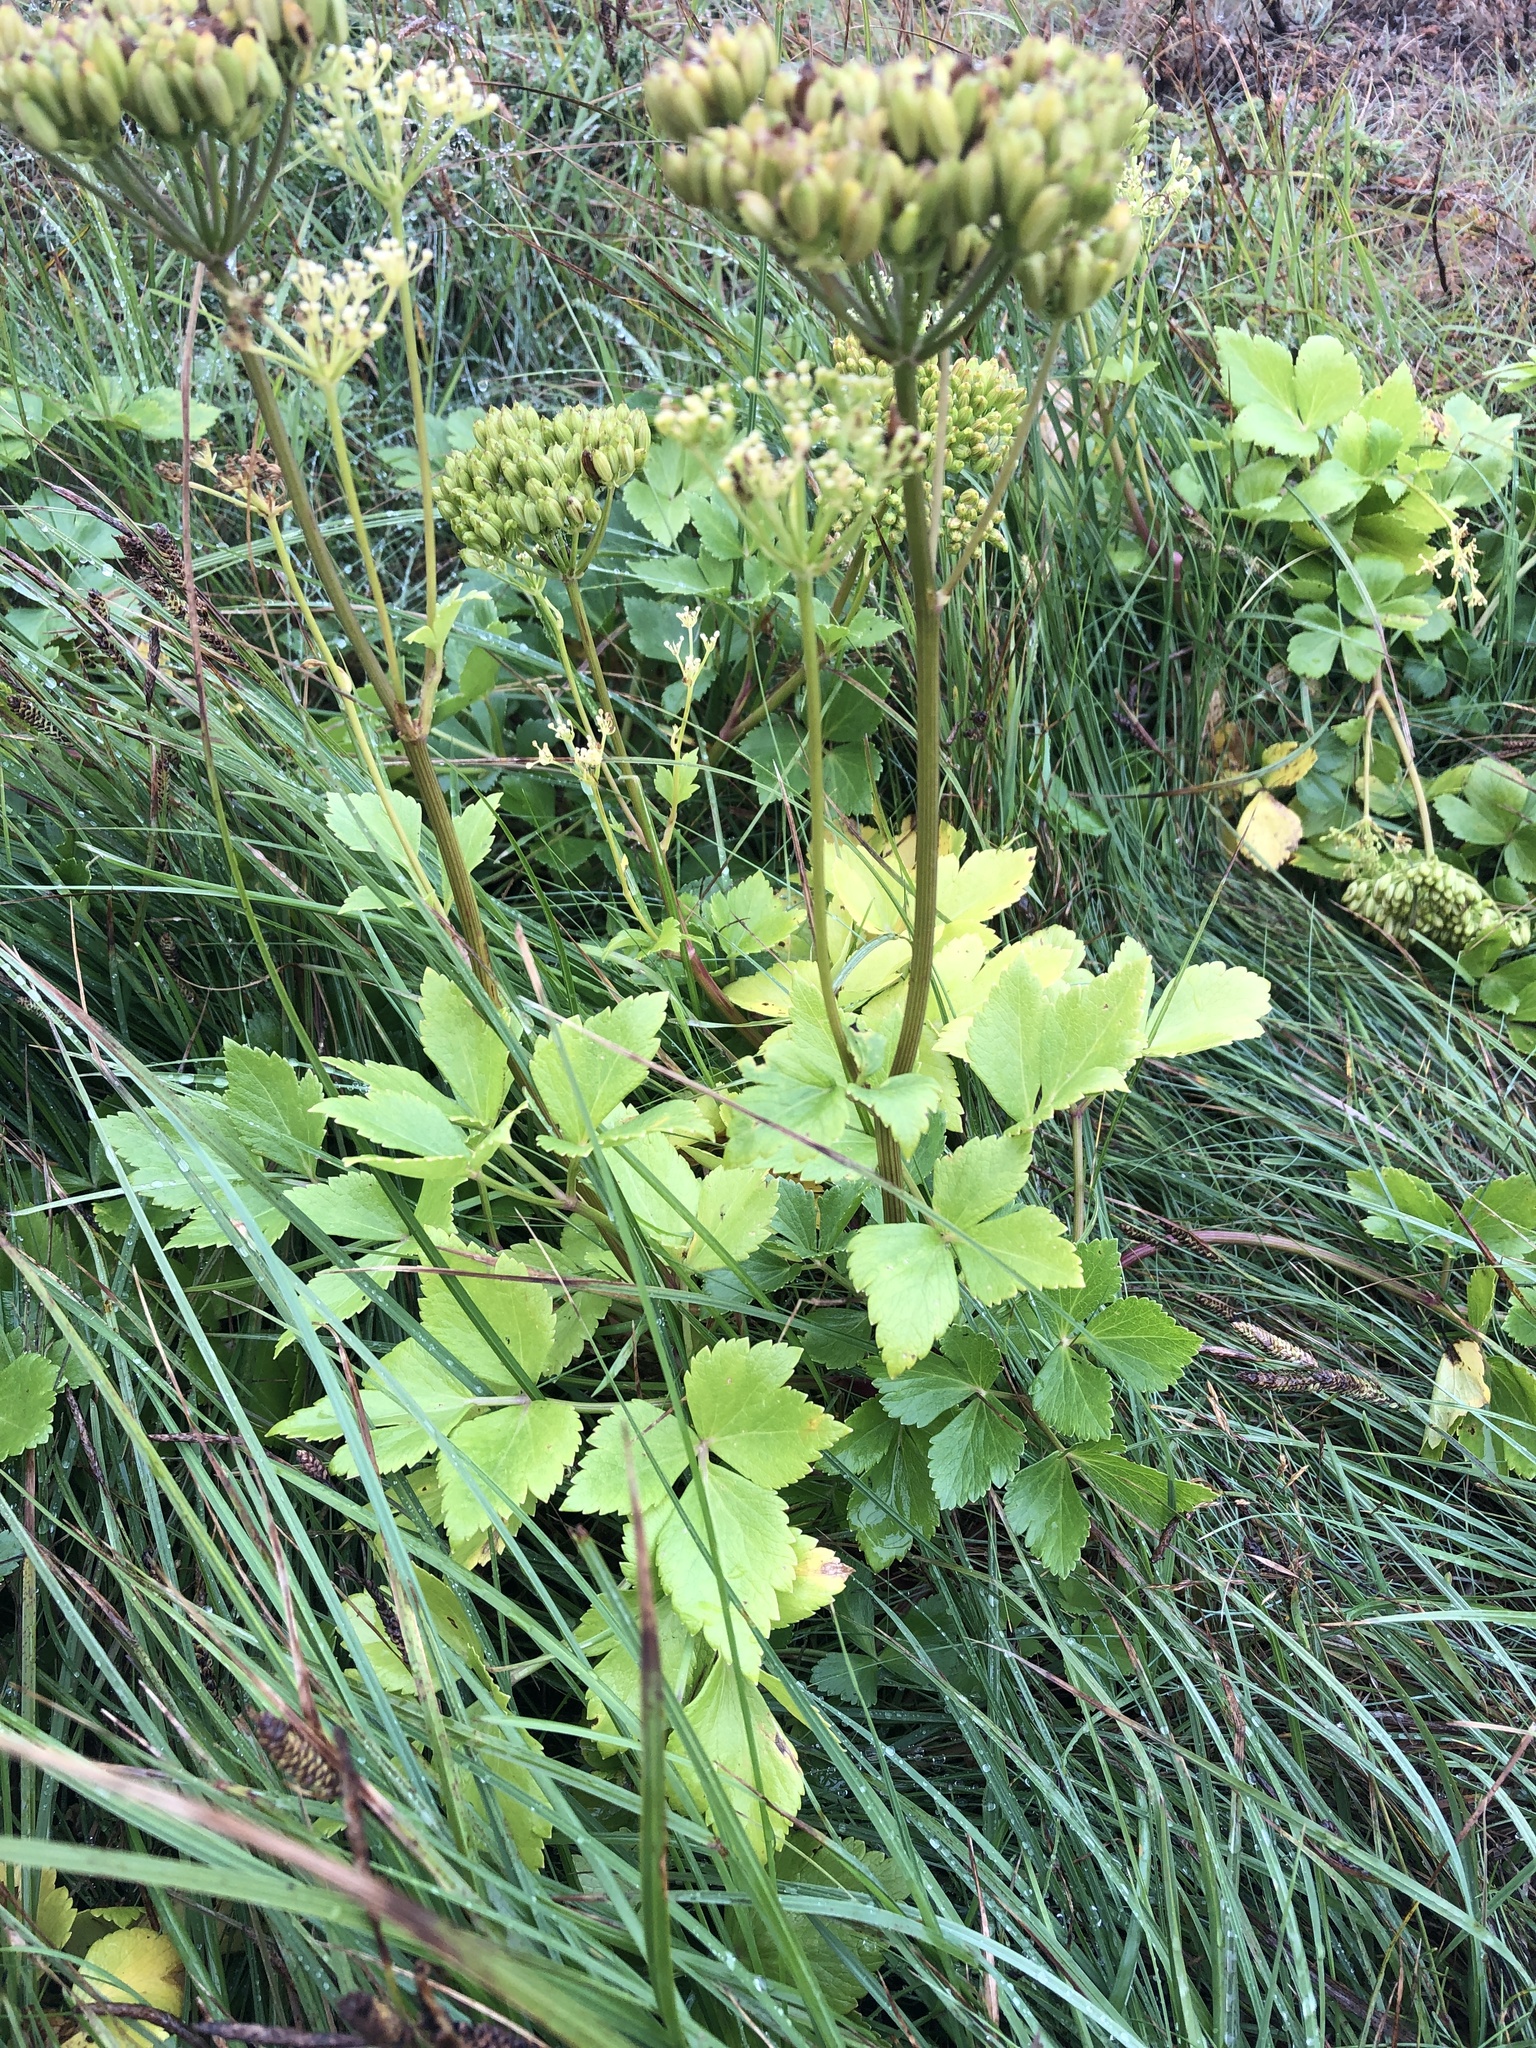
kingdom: Plantae
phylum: Tracheophyta
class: Magnoliopsida
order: Apiales
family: Apiaceae
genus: Ligusticum
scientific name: Ligusticum scothicum
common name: Beach lovage
